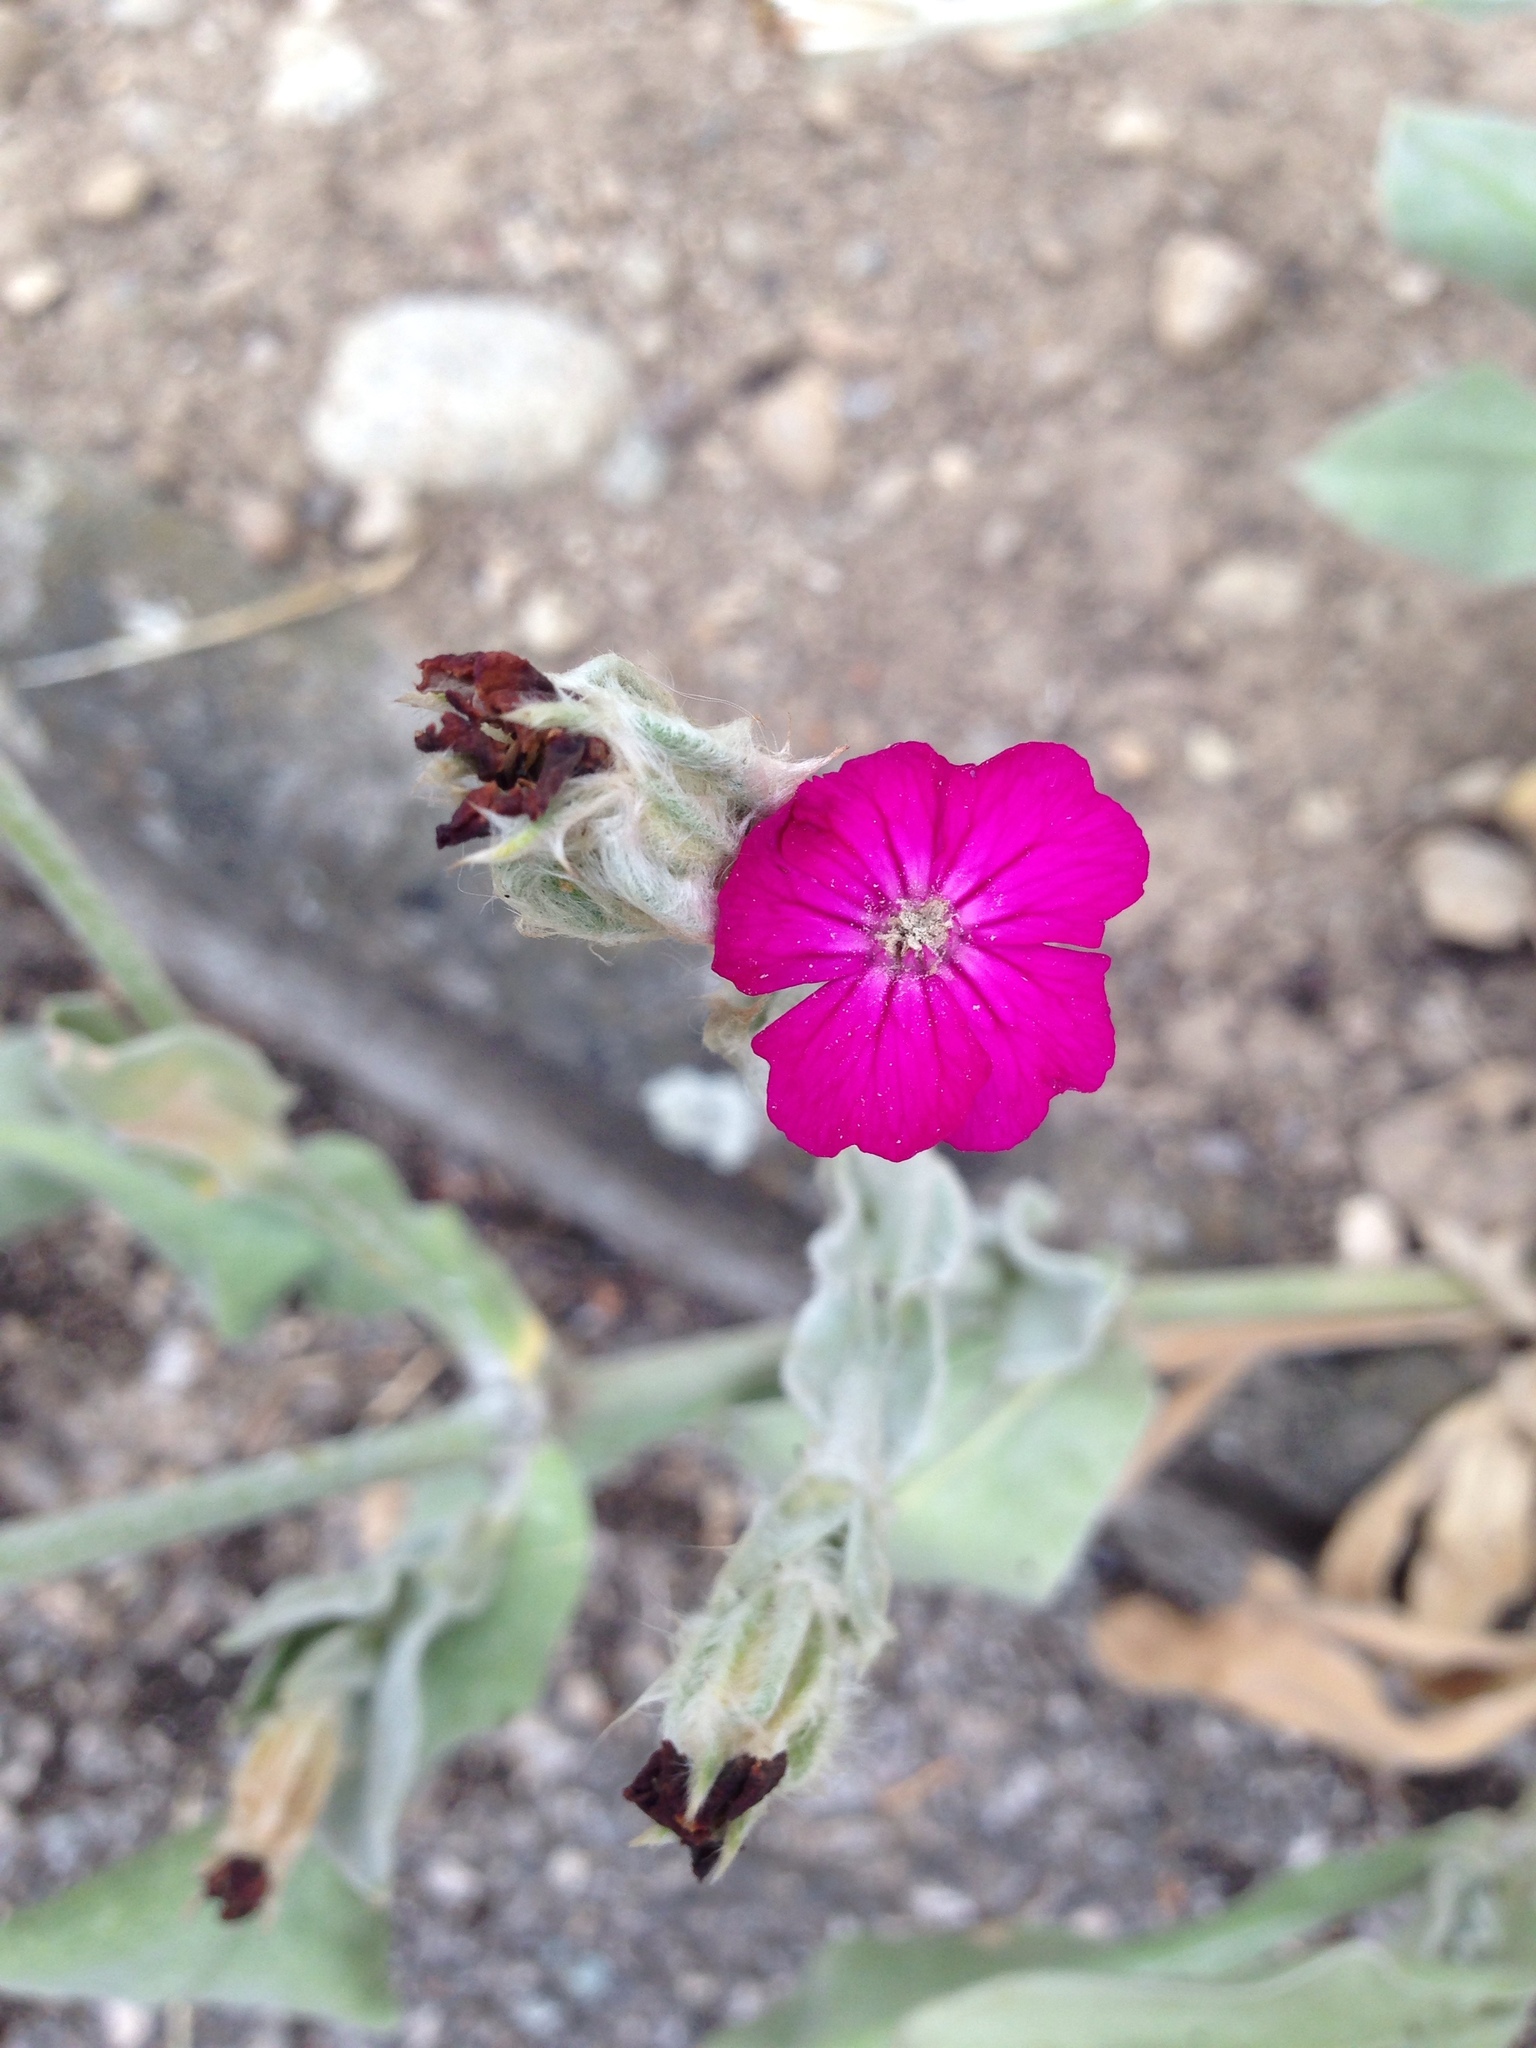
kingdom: Plantae
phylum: Tracheophyta
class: Magnoliopsida
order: Caryophyllales
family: Caryophyllaceae
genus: Silene
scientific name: Silene coronaria
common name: Rose campion
